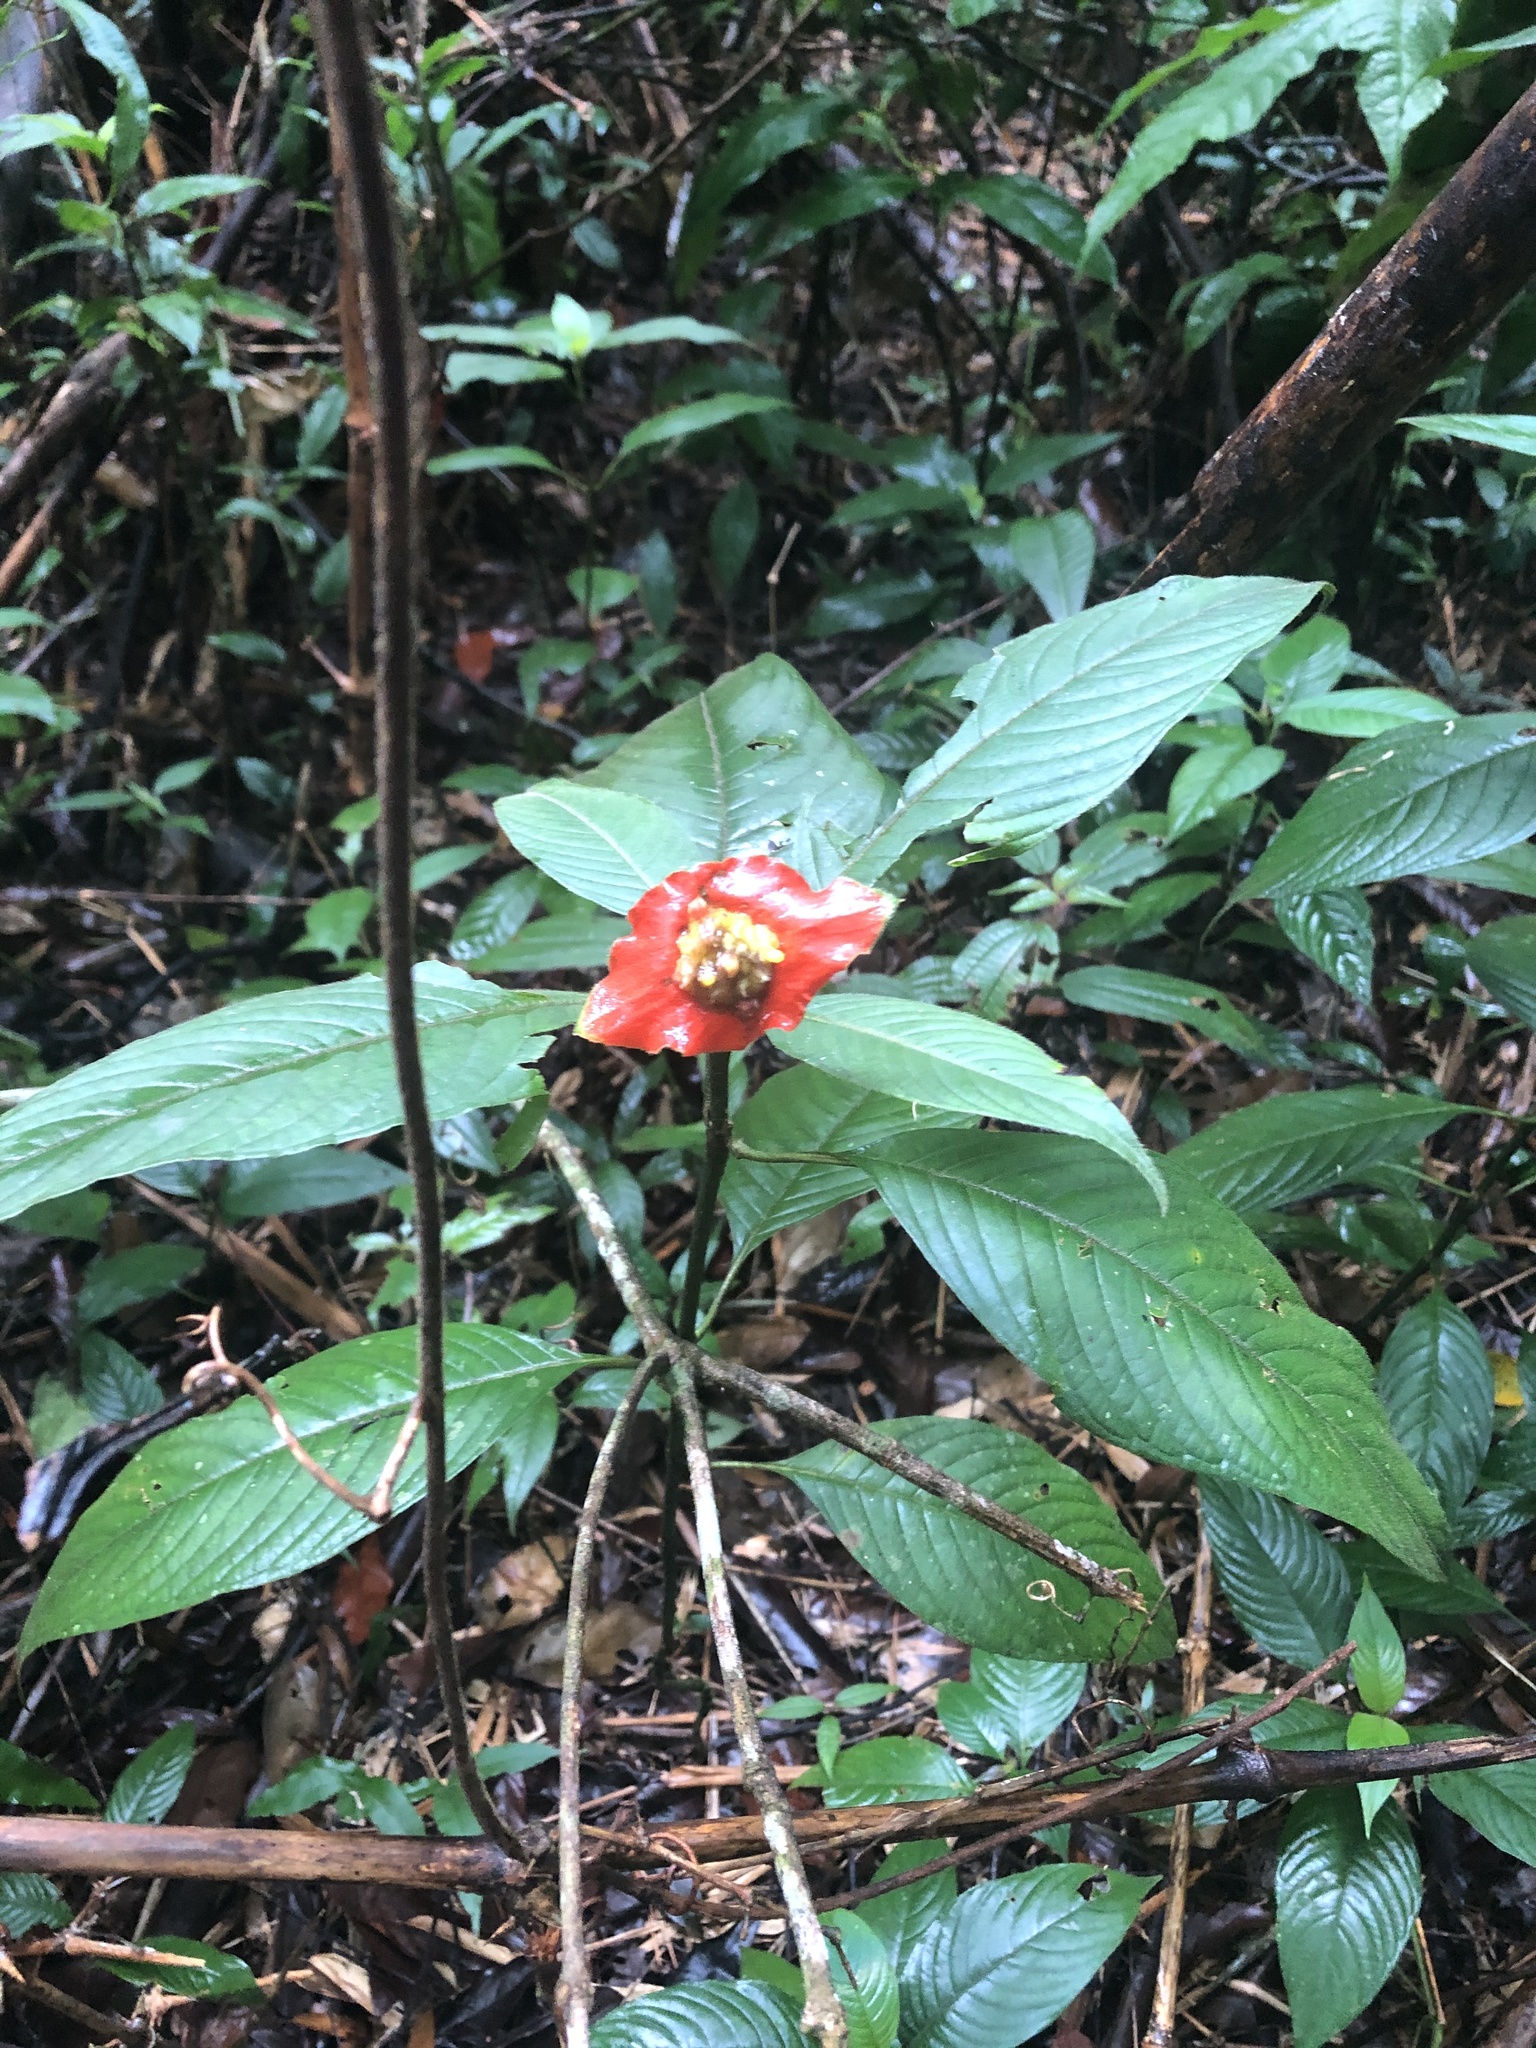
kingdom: Plantae
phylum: Tracheophyta
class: Magnoliopsida
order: Gentianales
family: Rubiaceae
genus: Palicourea
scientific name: Palicourea tomentosa
